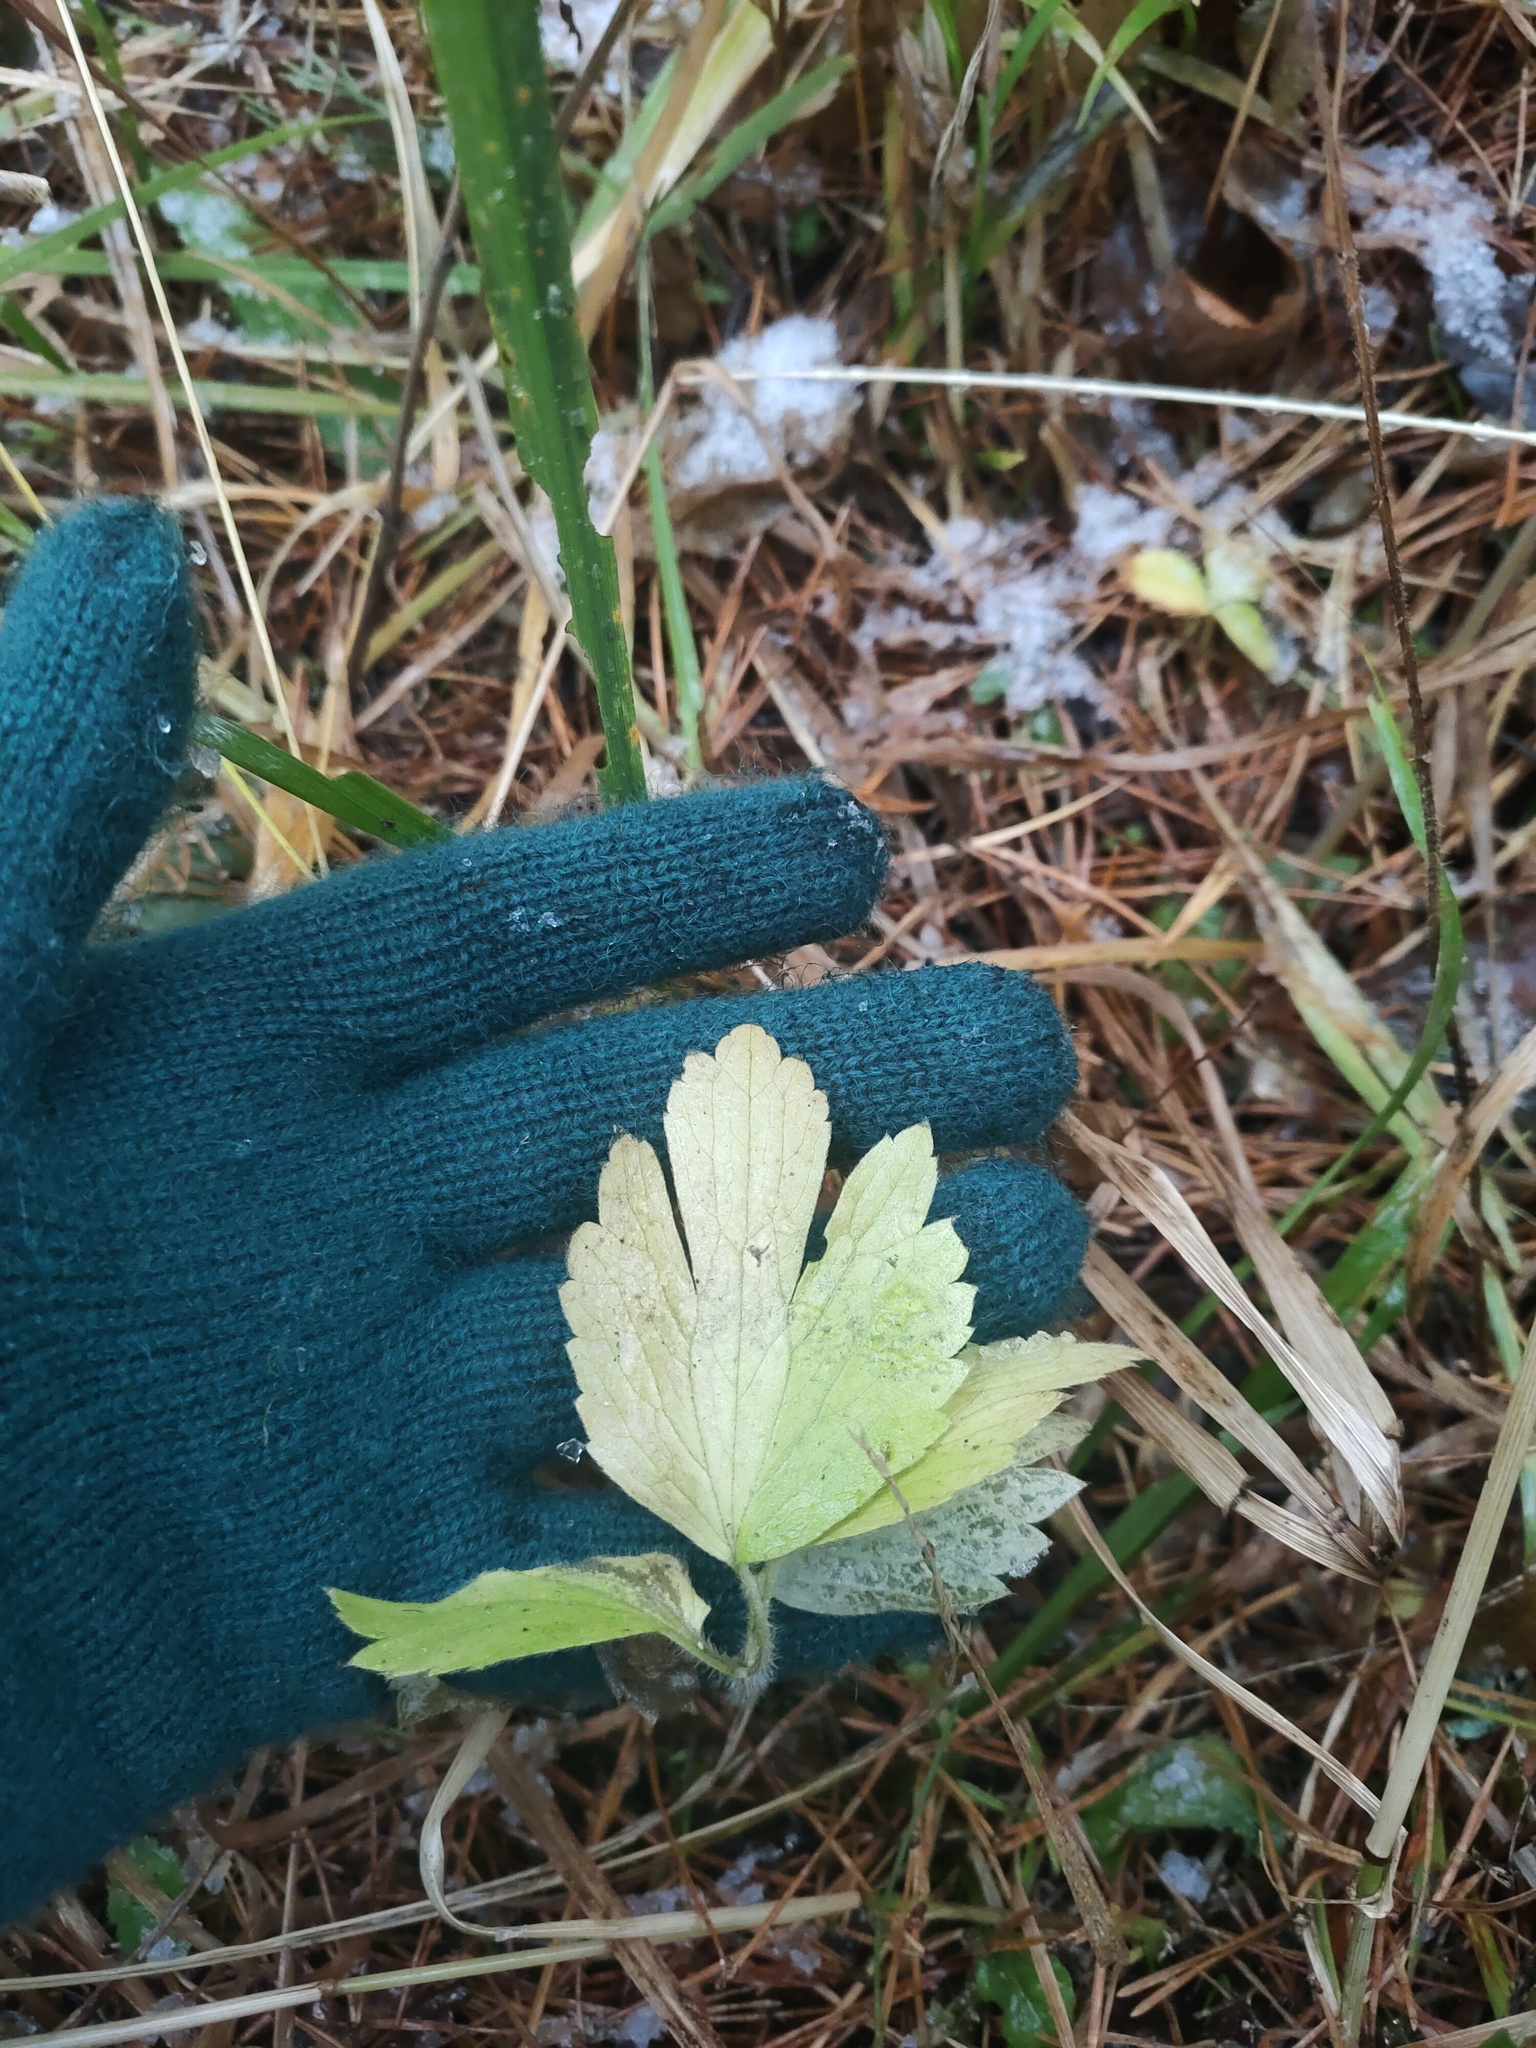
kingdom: Plantae
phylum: Tracheophyta
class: Magnoliopsida
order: Ranunculales
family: Ranunculaceae
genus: Ranunculus
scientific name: Ranunculus repens
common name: Creeping buttercup
